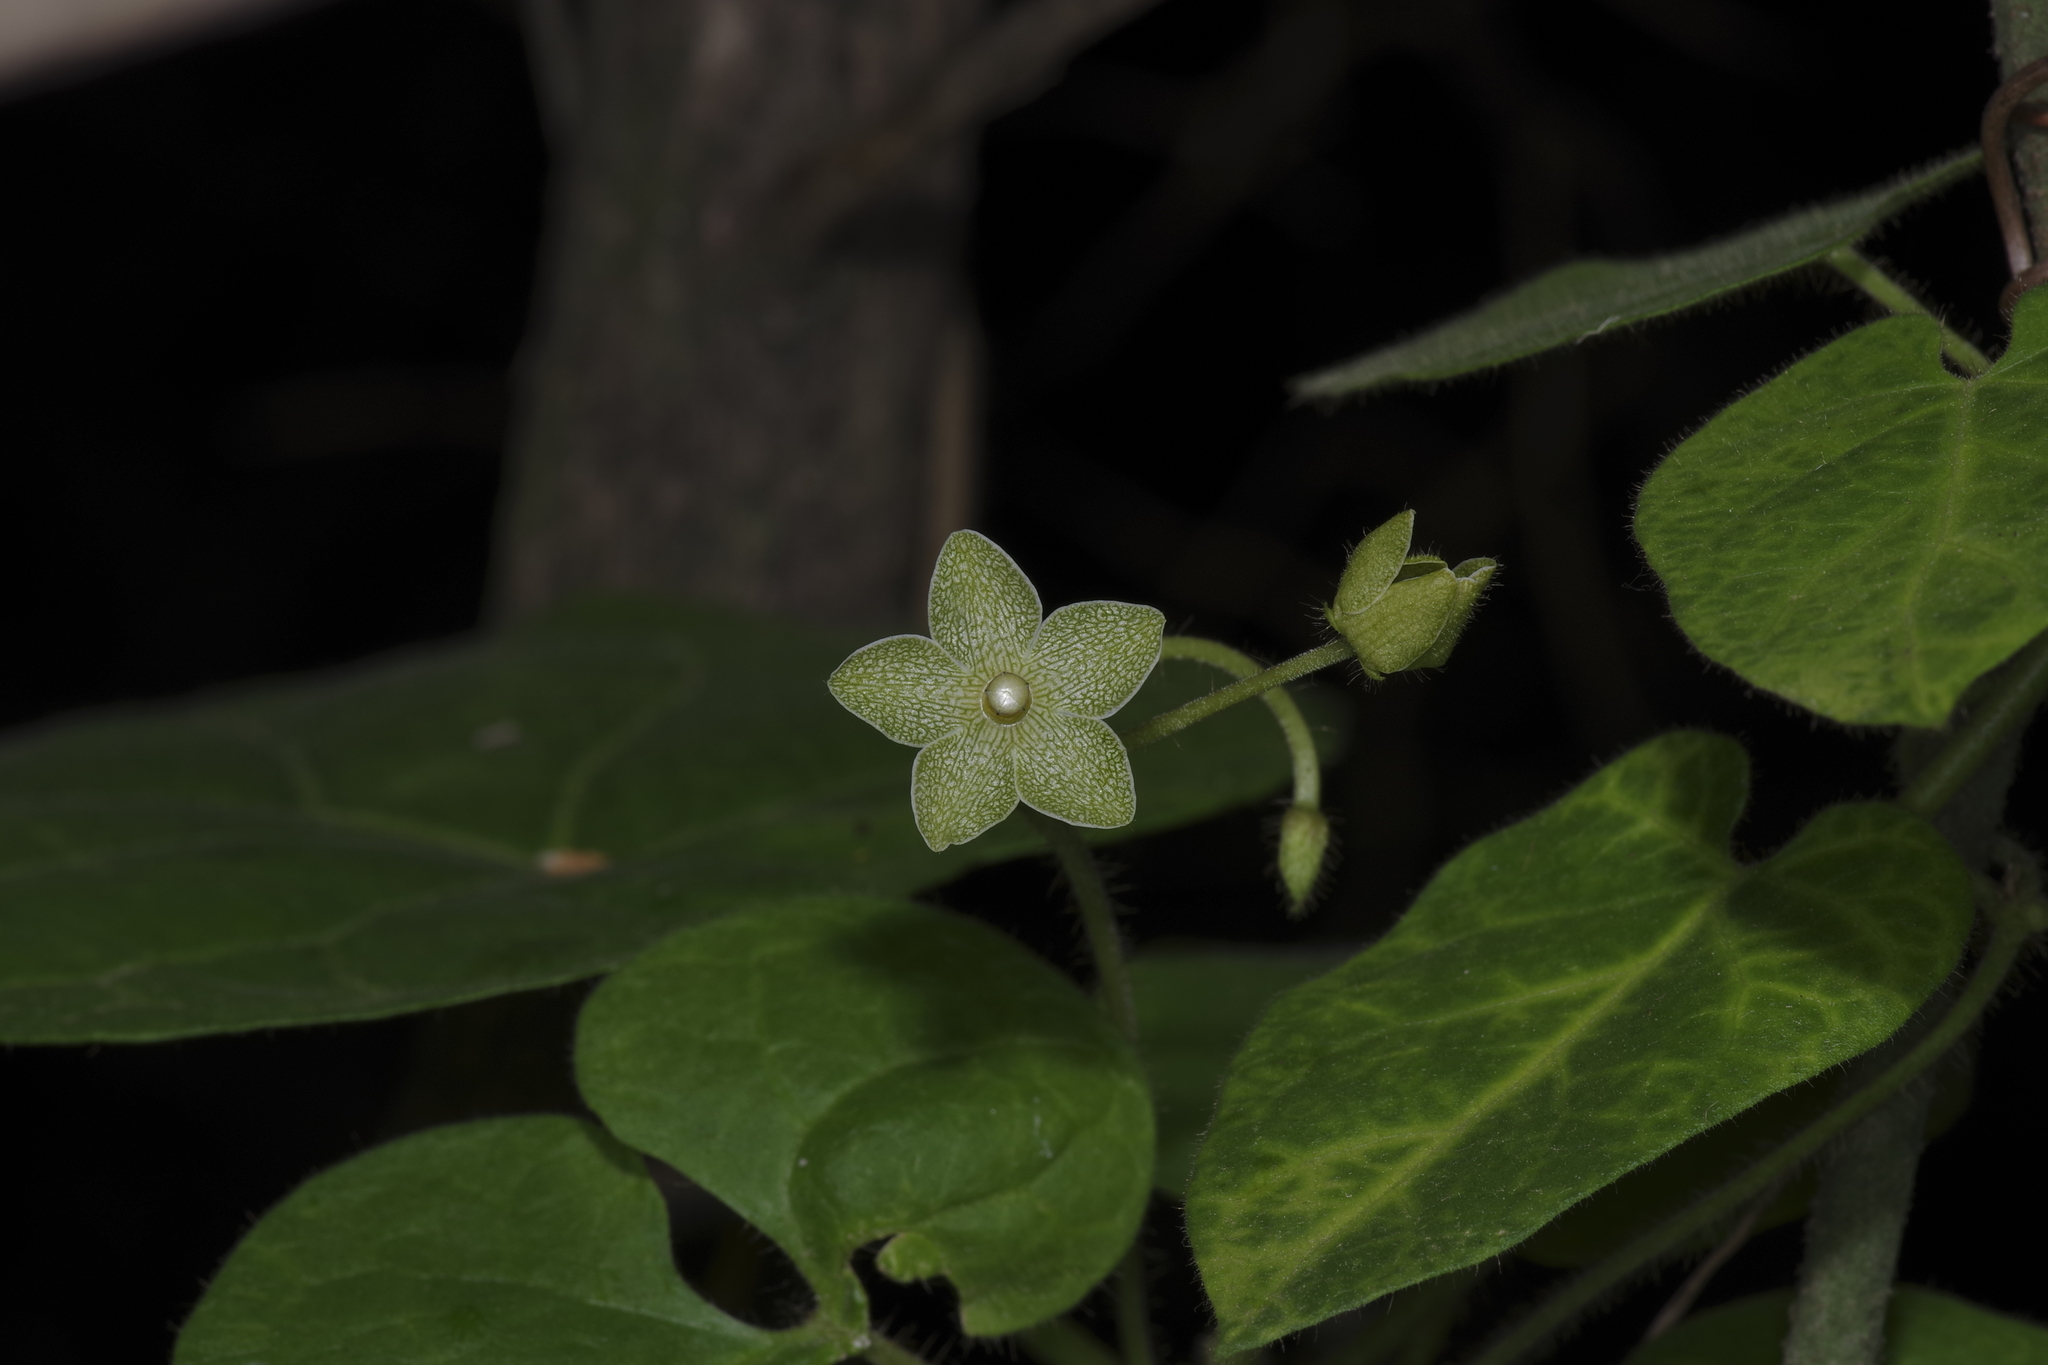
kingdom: Plantae
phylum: Tracheophyta
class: Magnoliopsida
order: Gentianales
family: Apocynaceae
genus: Dictyanthus
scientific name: Dictyanthus reticulatus
